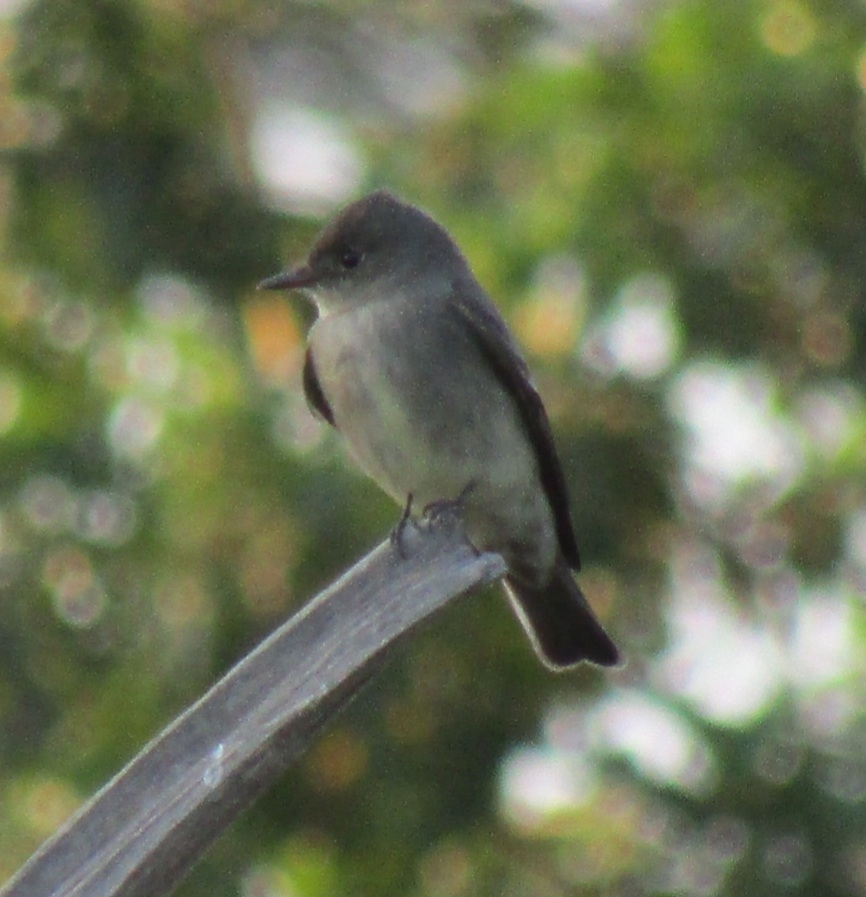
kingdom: Animalia
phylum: Chordata
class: Aves
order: Passeriformes
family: Tyrannidae
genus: Contopus
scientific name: Contopus sordidulus
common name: Western wood-pewee
